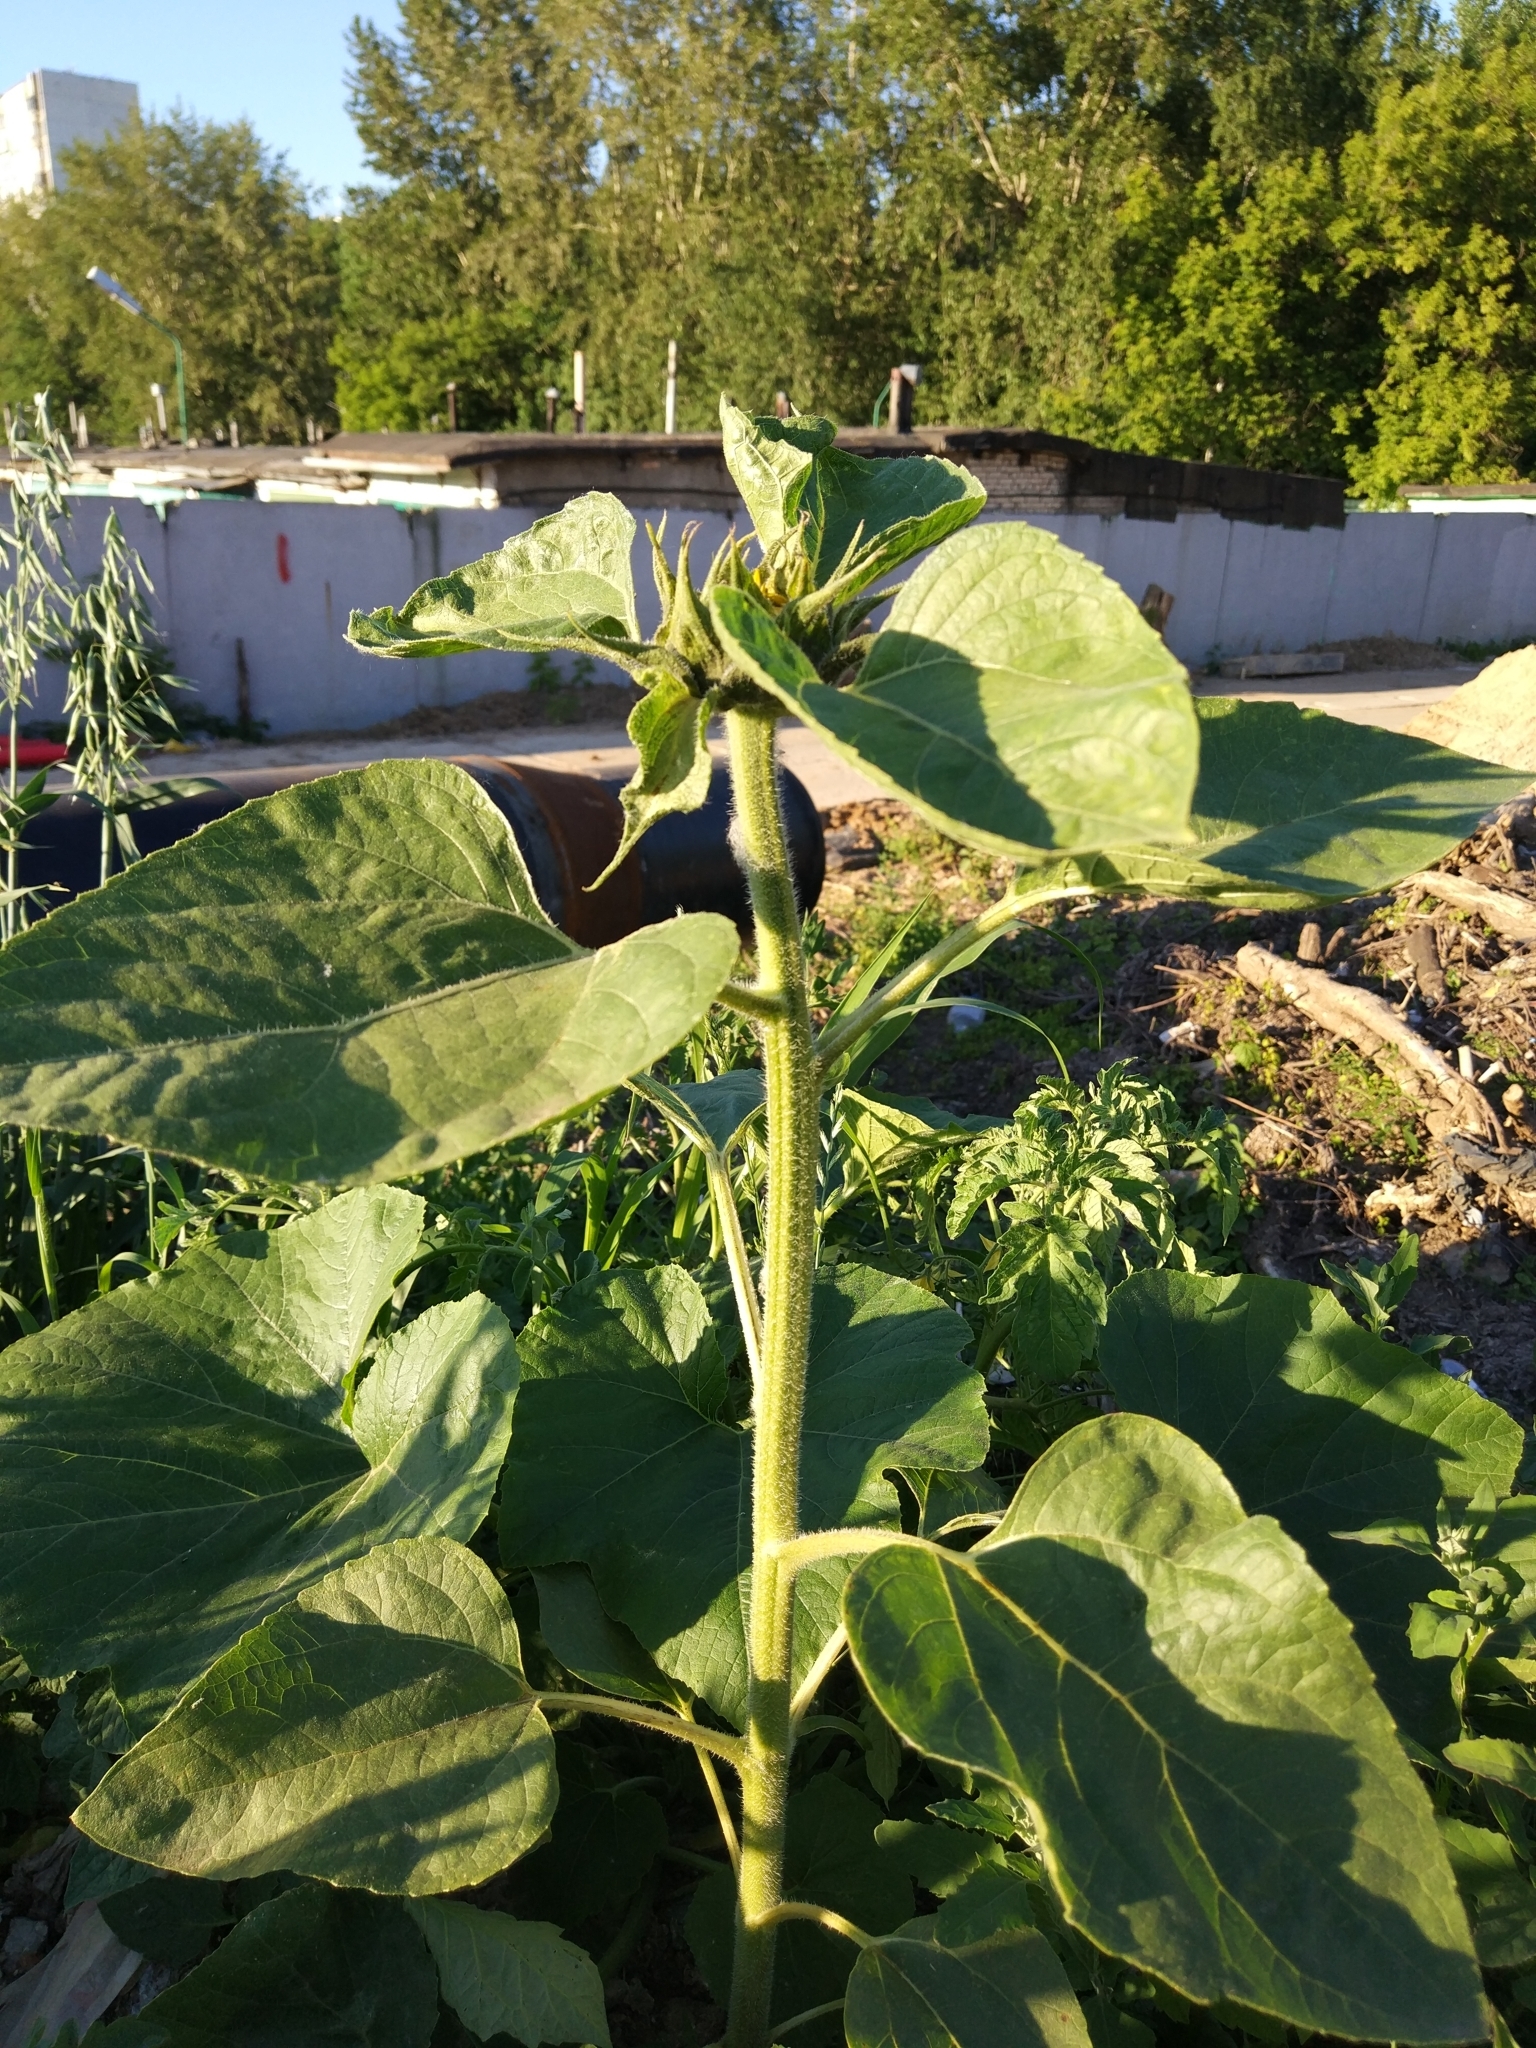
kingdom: Plantae
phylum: Tracheophyta
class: Magnoliopsida
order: Asterales
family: Asteraceae
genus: Helianthus
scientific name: Helianthus annuus
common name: Sunflower
